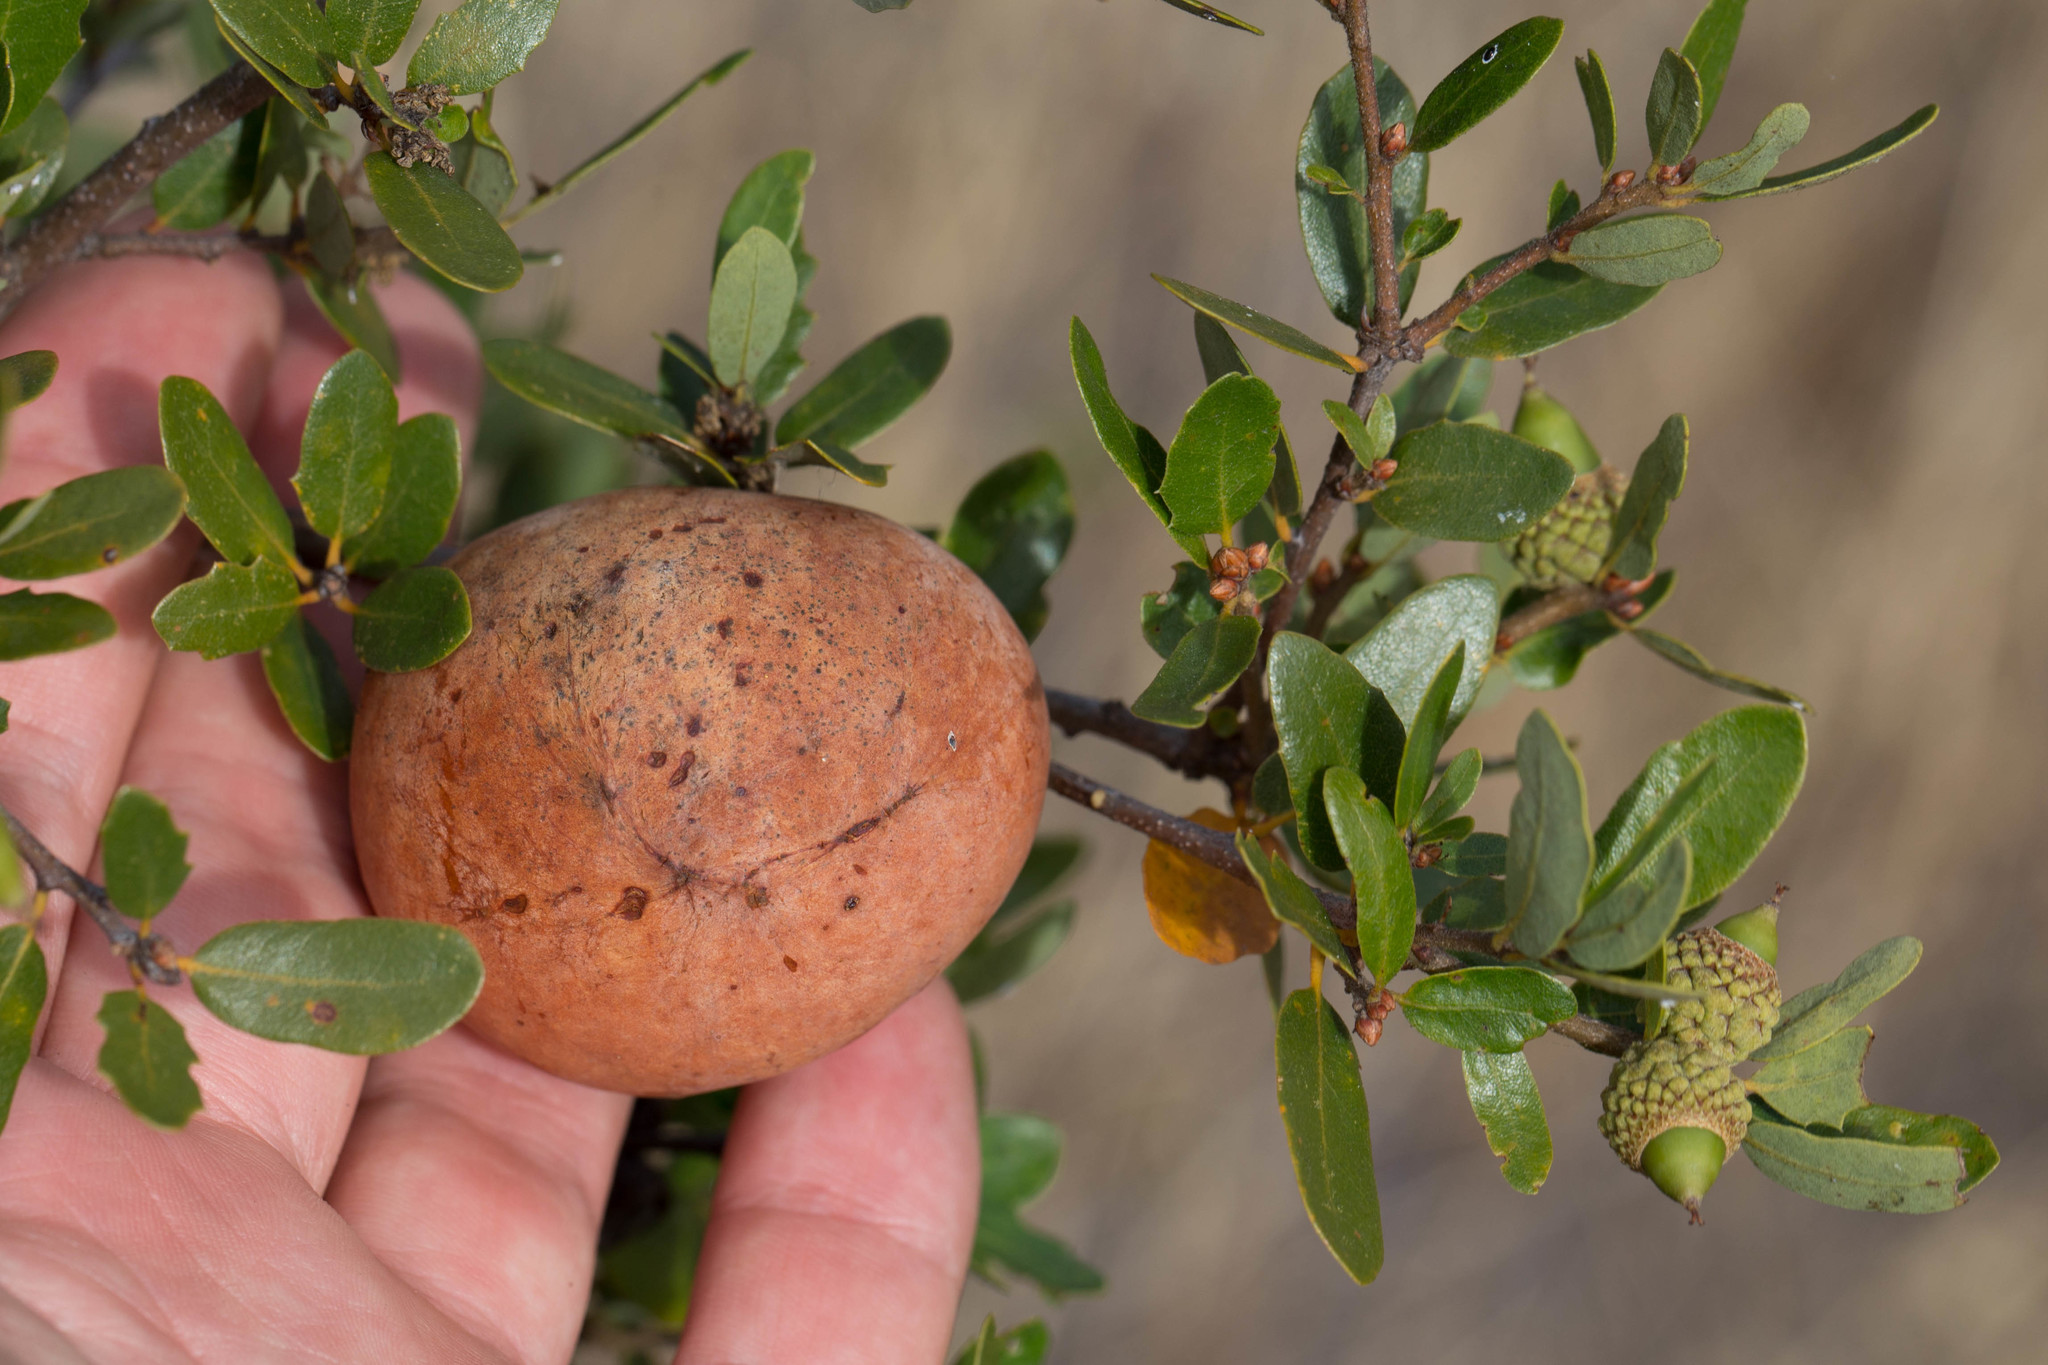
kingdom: Animalia
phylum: Arthropoda
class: Insecta
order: Hymenoptera
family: Cynipidae
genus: Andricus
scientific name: Andricus quercuscalifornicus
